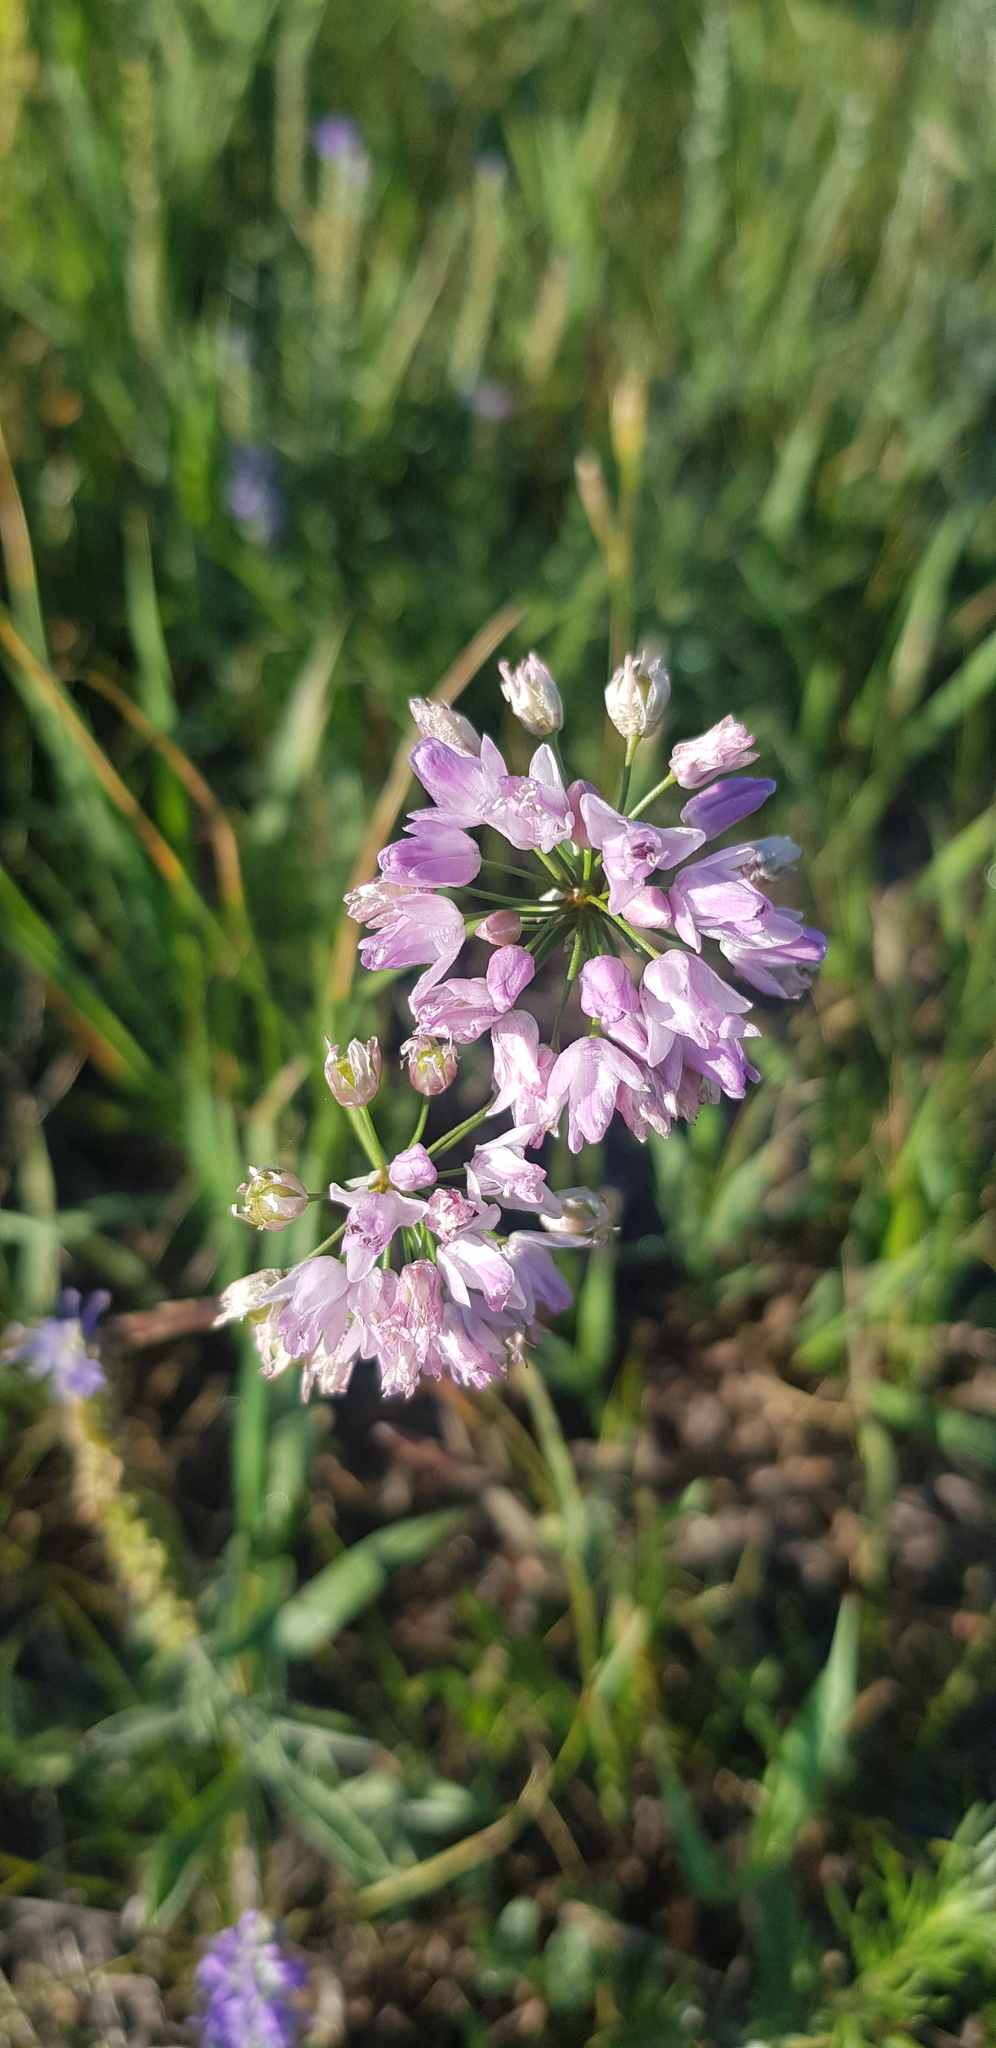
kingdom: Plantae
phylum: Tracheophyta
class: Liliopsida
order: Asparagales
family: Amaryllidaceae
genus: Allium
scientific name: Allium bidentatum
